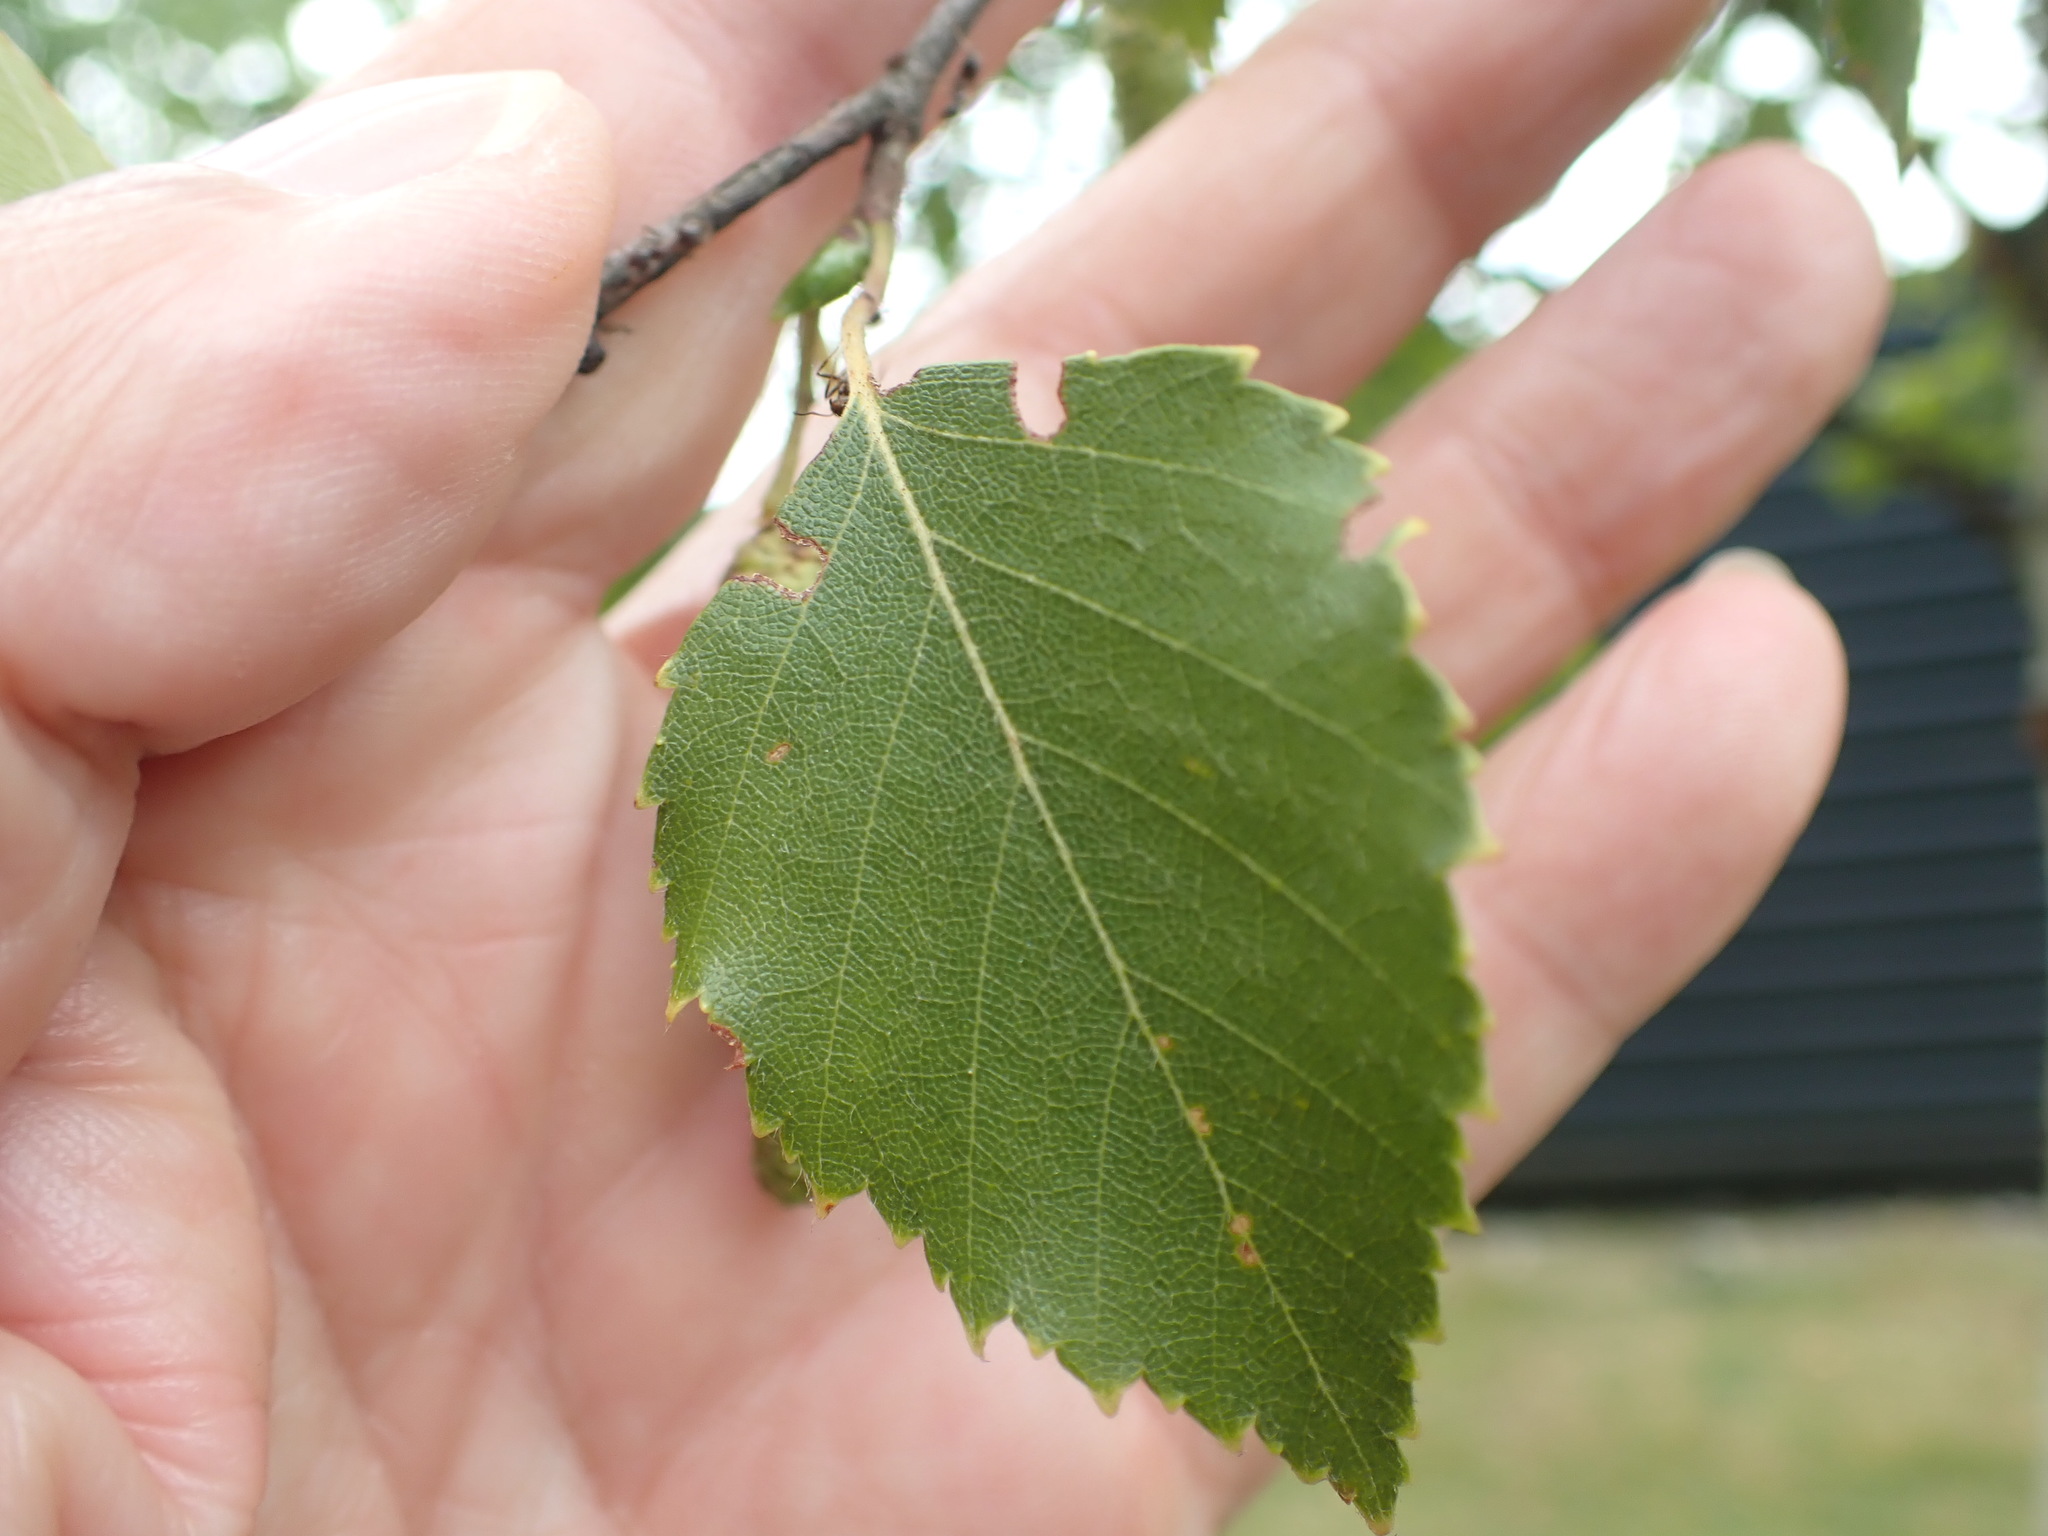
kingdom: Plantae
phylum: Tracheophyta
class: Magnoliopsida
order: Fagales
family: Betulaceae
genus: Betula
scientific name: Betula pendula
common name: Silver birch
